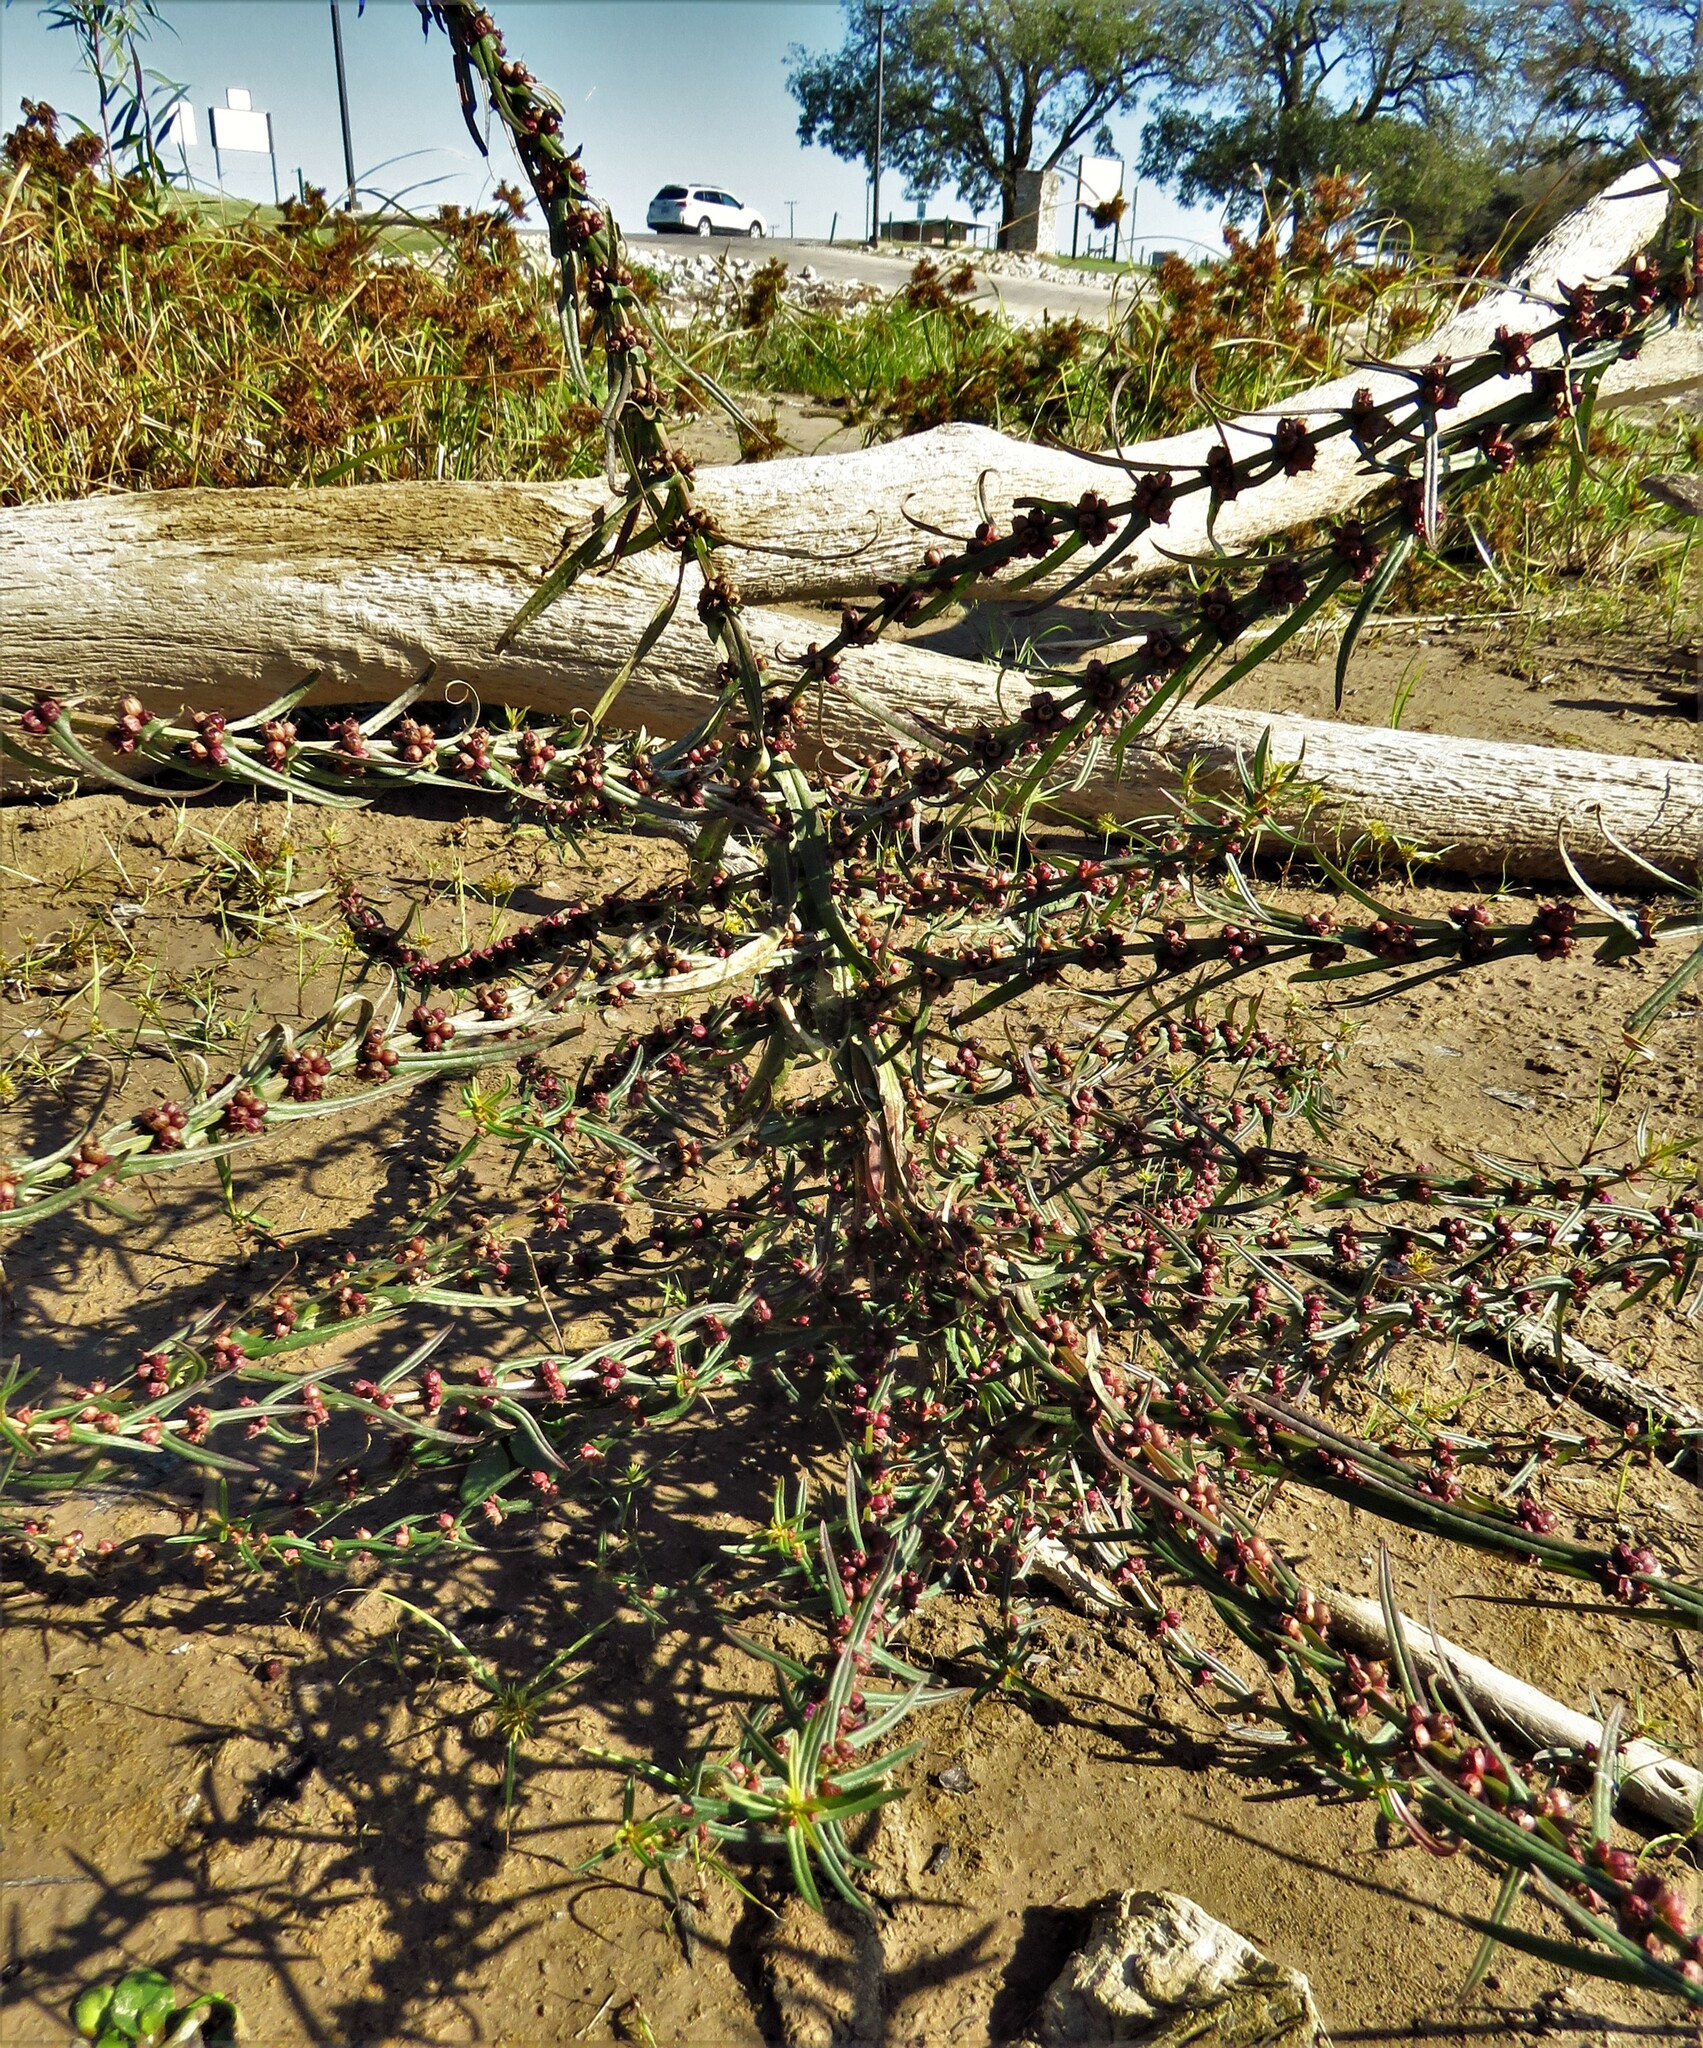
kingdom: Plantae
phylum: Tracheophyta
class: Magnoliopsida
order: Myrtales
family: Lythraceae
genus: Ammannia
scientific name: Ammannia coccinea
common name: Valley redstem
